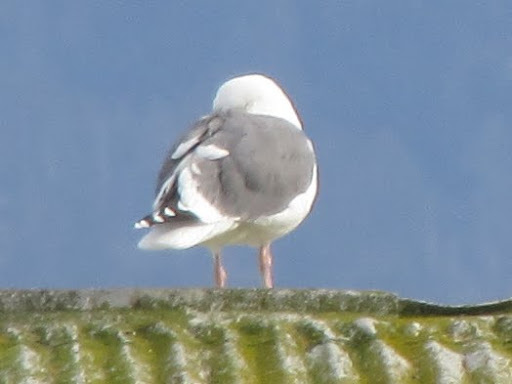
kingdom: Animalia
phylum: Chordata
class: Aves
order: Charadriiformes
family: Laridae
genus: Larus
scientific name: Larus occidentalis
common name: Western gull
